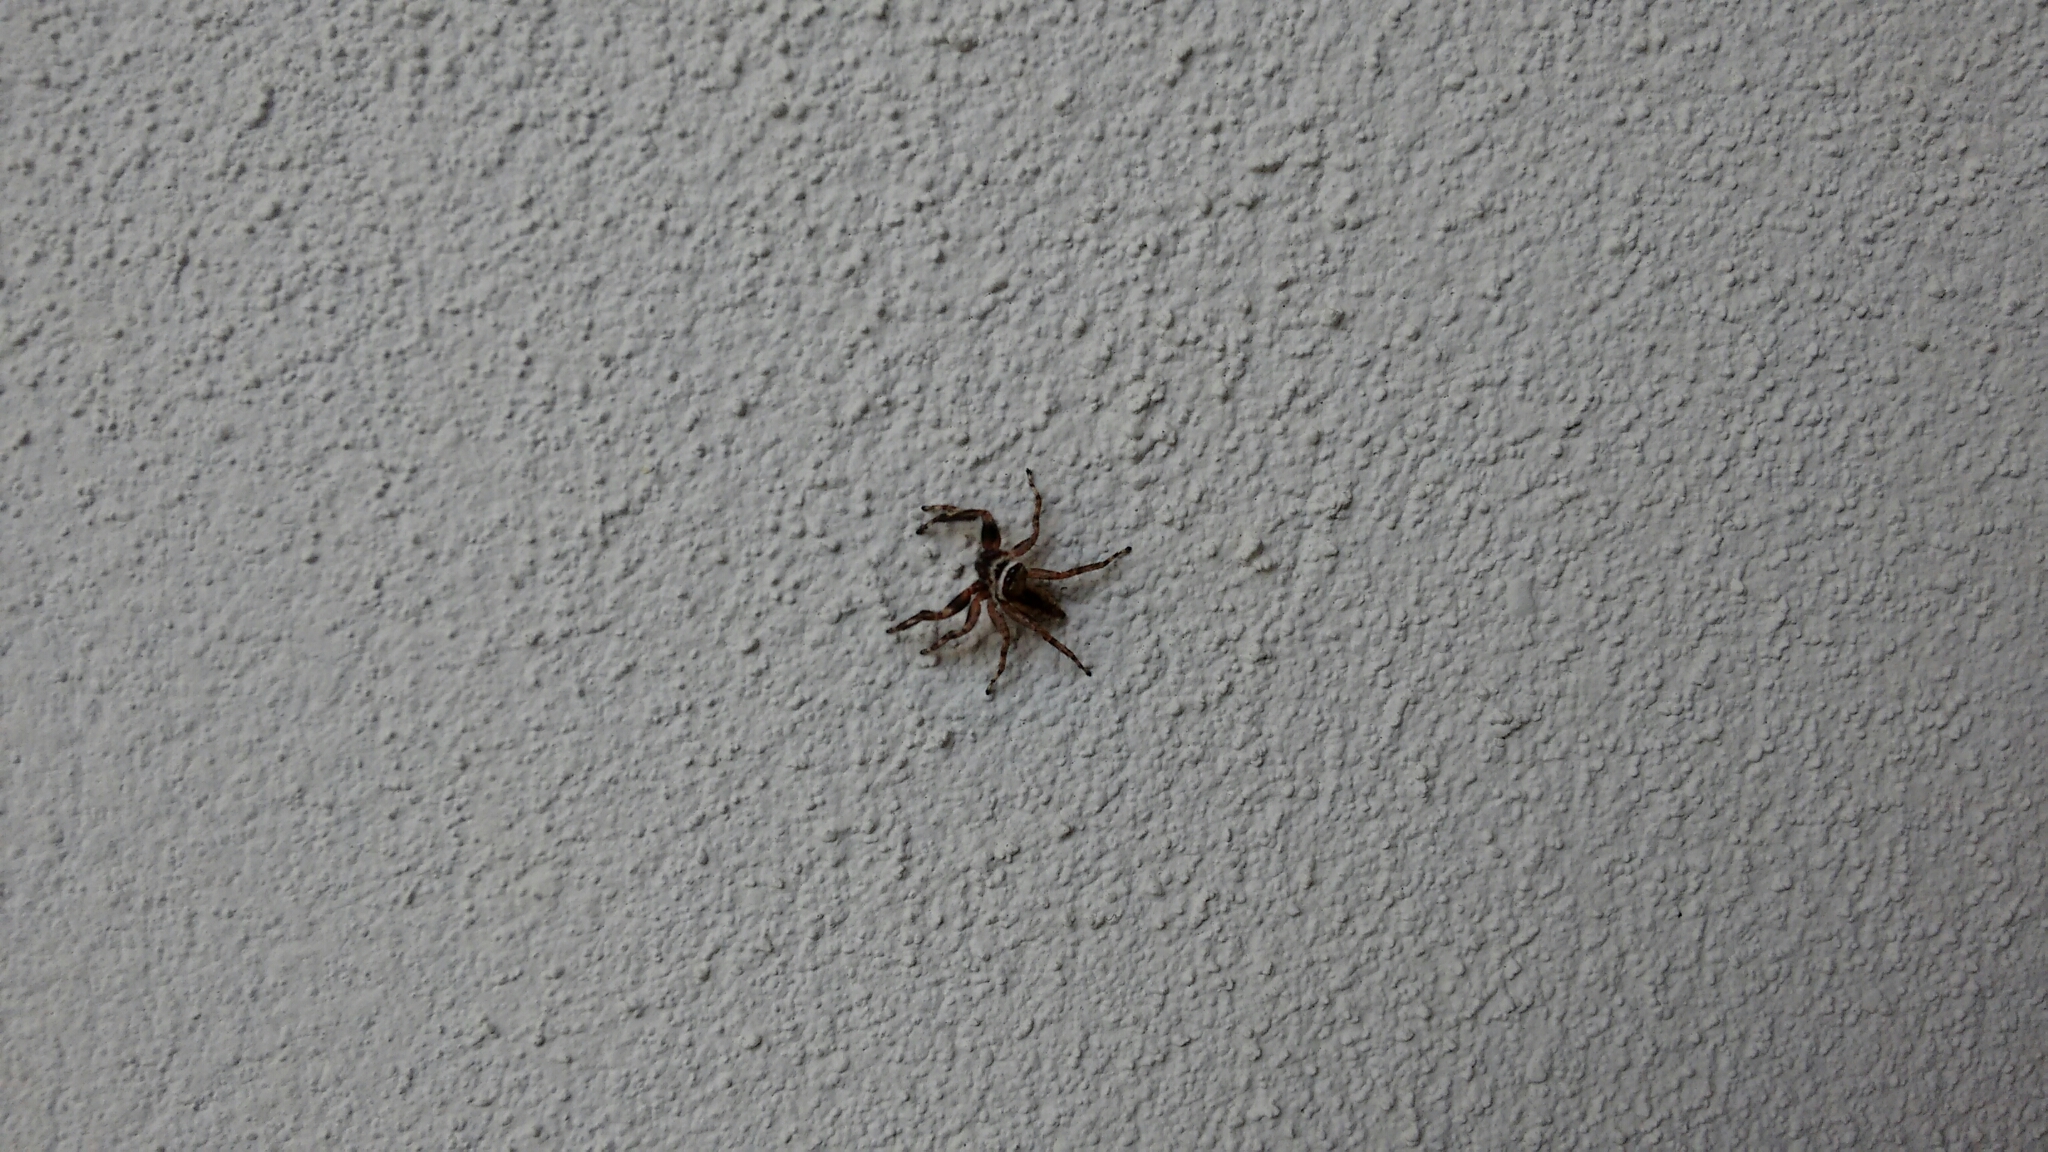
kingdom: Animalia
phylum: Arthropoda
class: Arachnida
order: Araneae
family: Salticidae
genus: Menemerus
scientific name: Menemerus bivittatus
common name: Gray wall jumper
